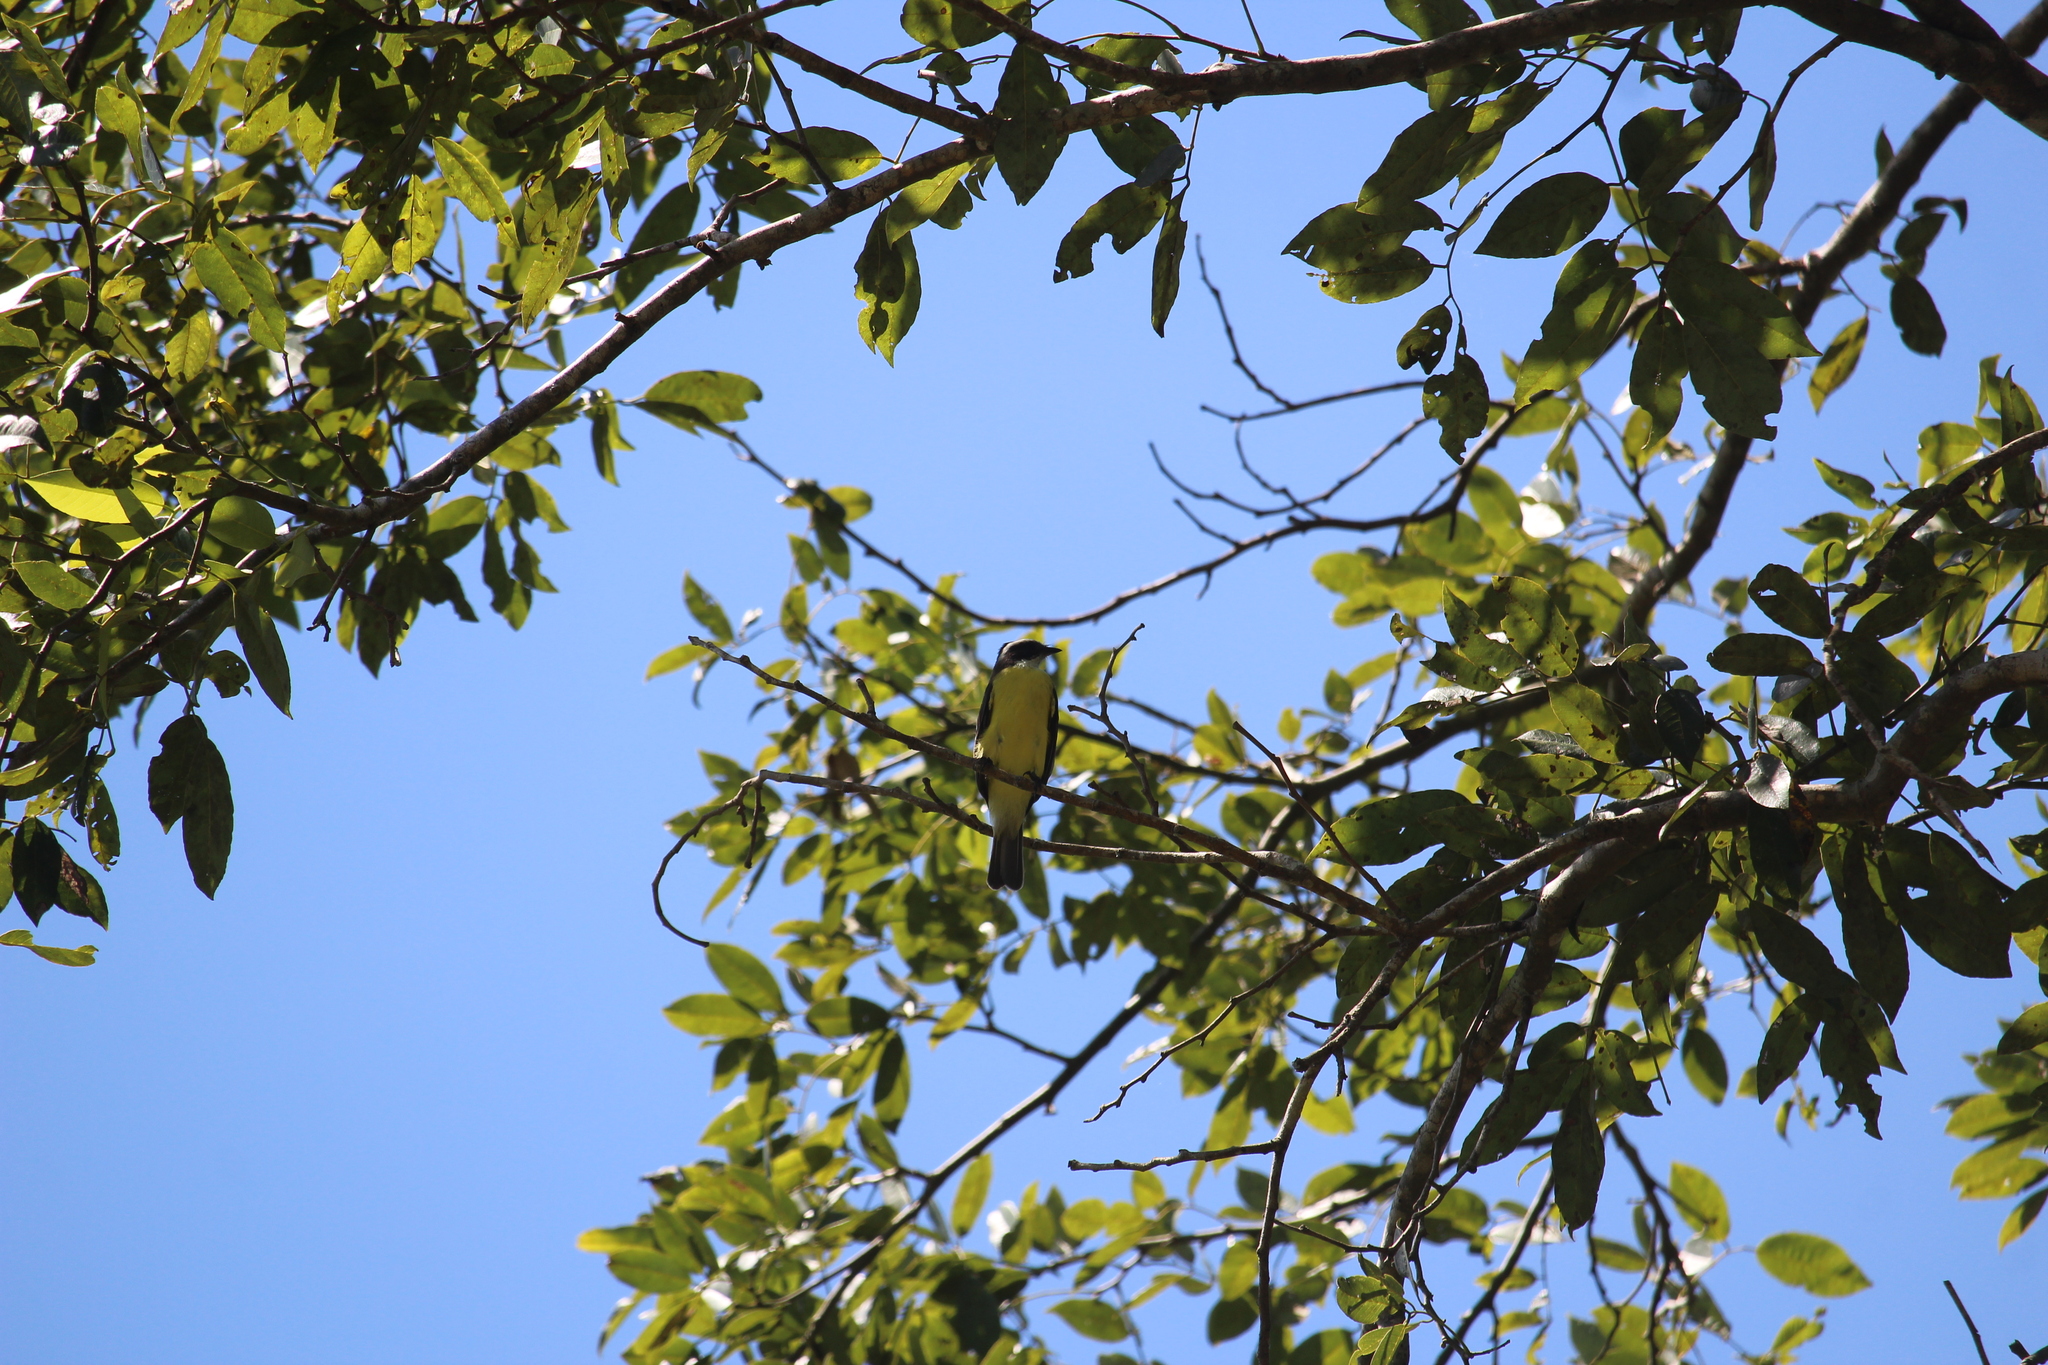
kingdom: Animalia
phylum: Chordata
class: Aves
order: Passeriformes
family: Tyrannidae
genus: Myiozetetes
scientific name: Myiozetetes similis
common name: Social flycatcher
